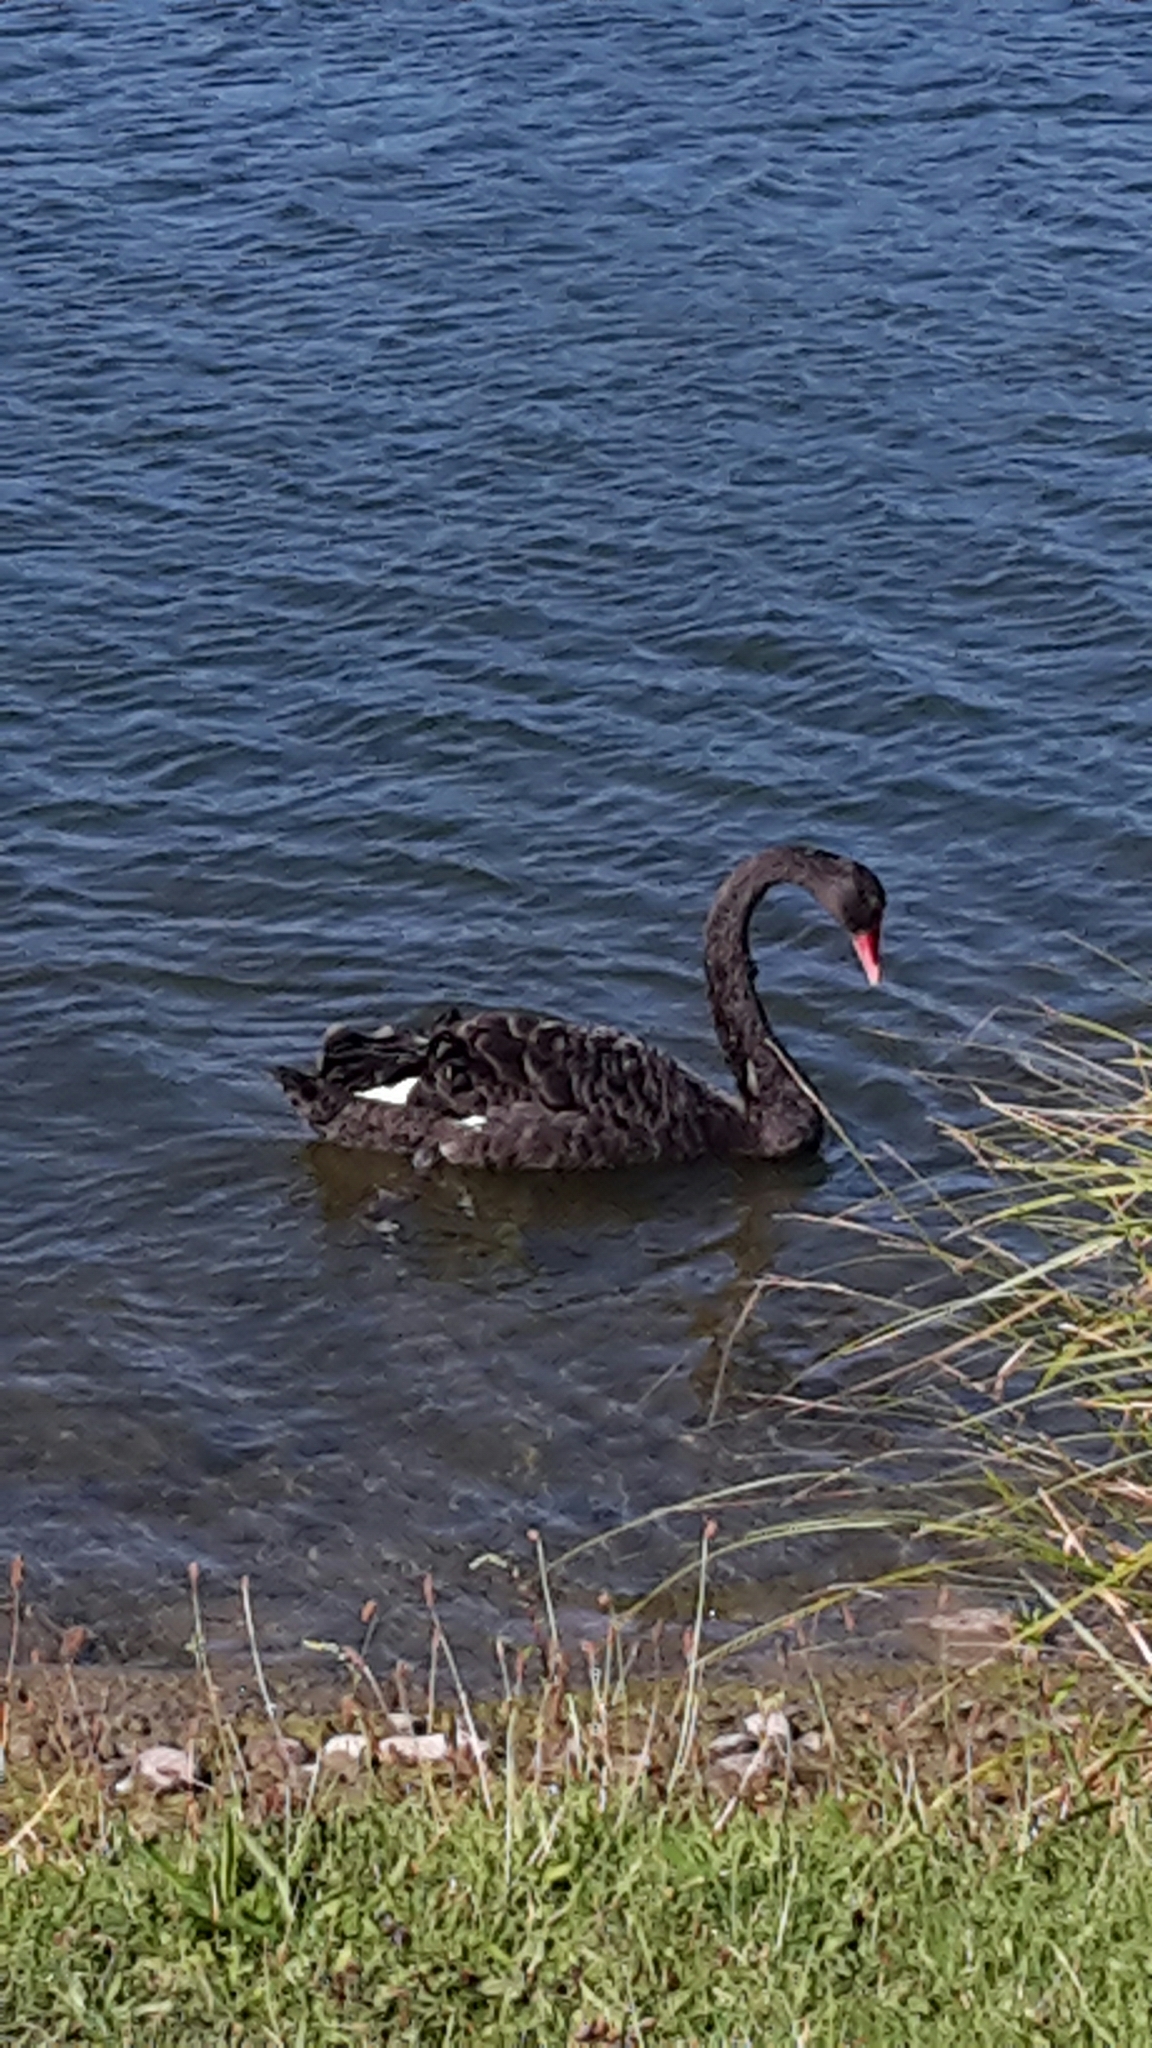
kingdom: Animalia
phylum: Chordata
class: Aves
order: Anseriformes
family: Anatidae
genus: Cygnus
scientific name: Cygnus atratus
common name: Black swan
